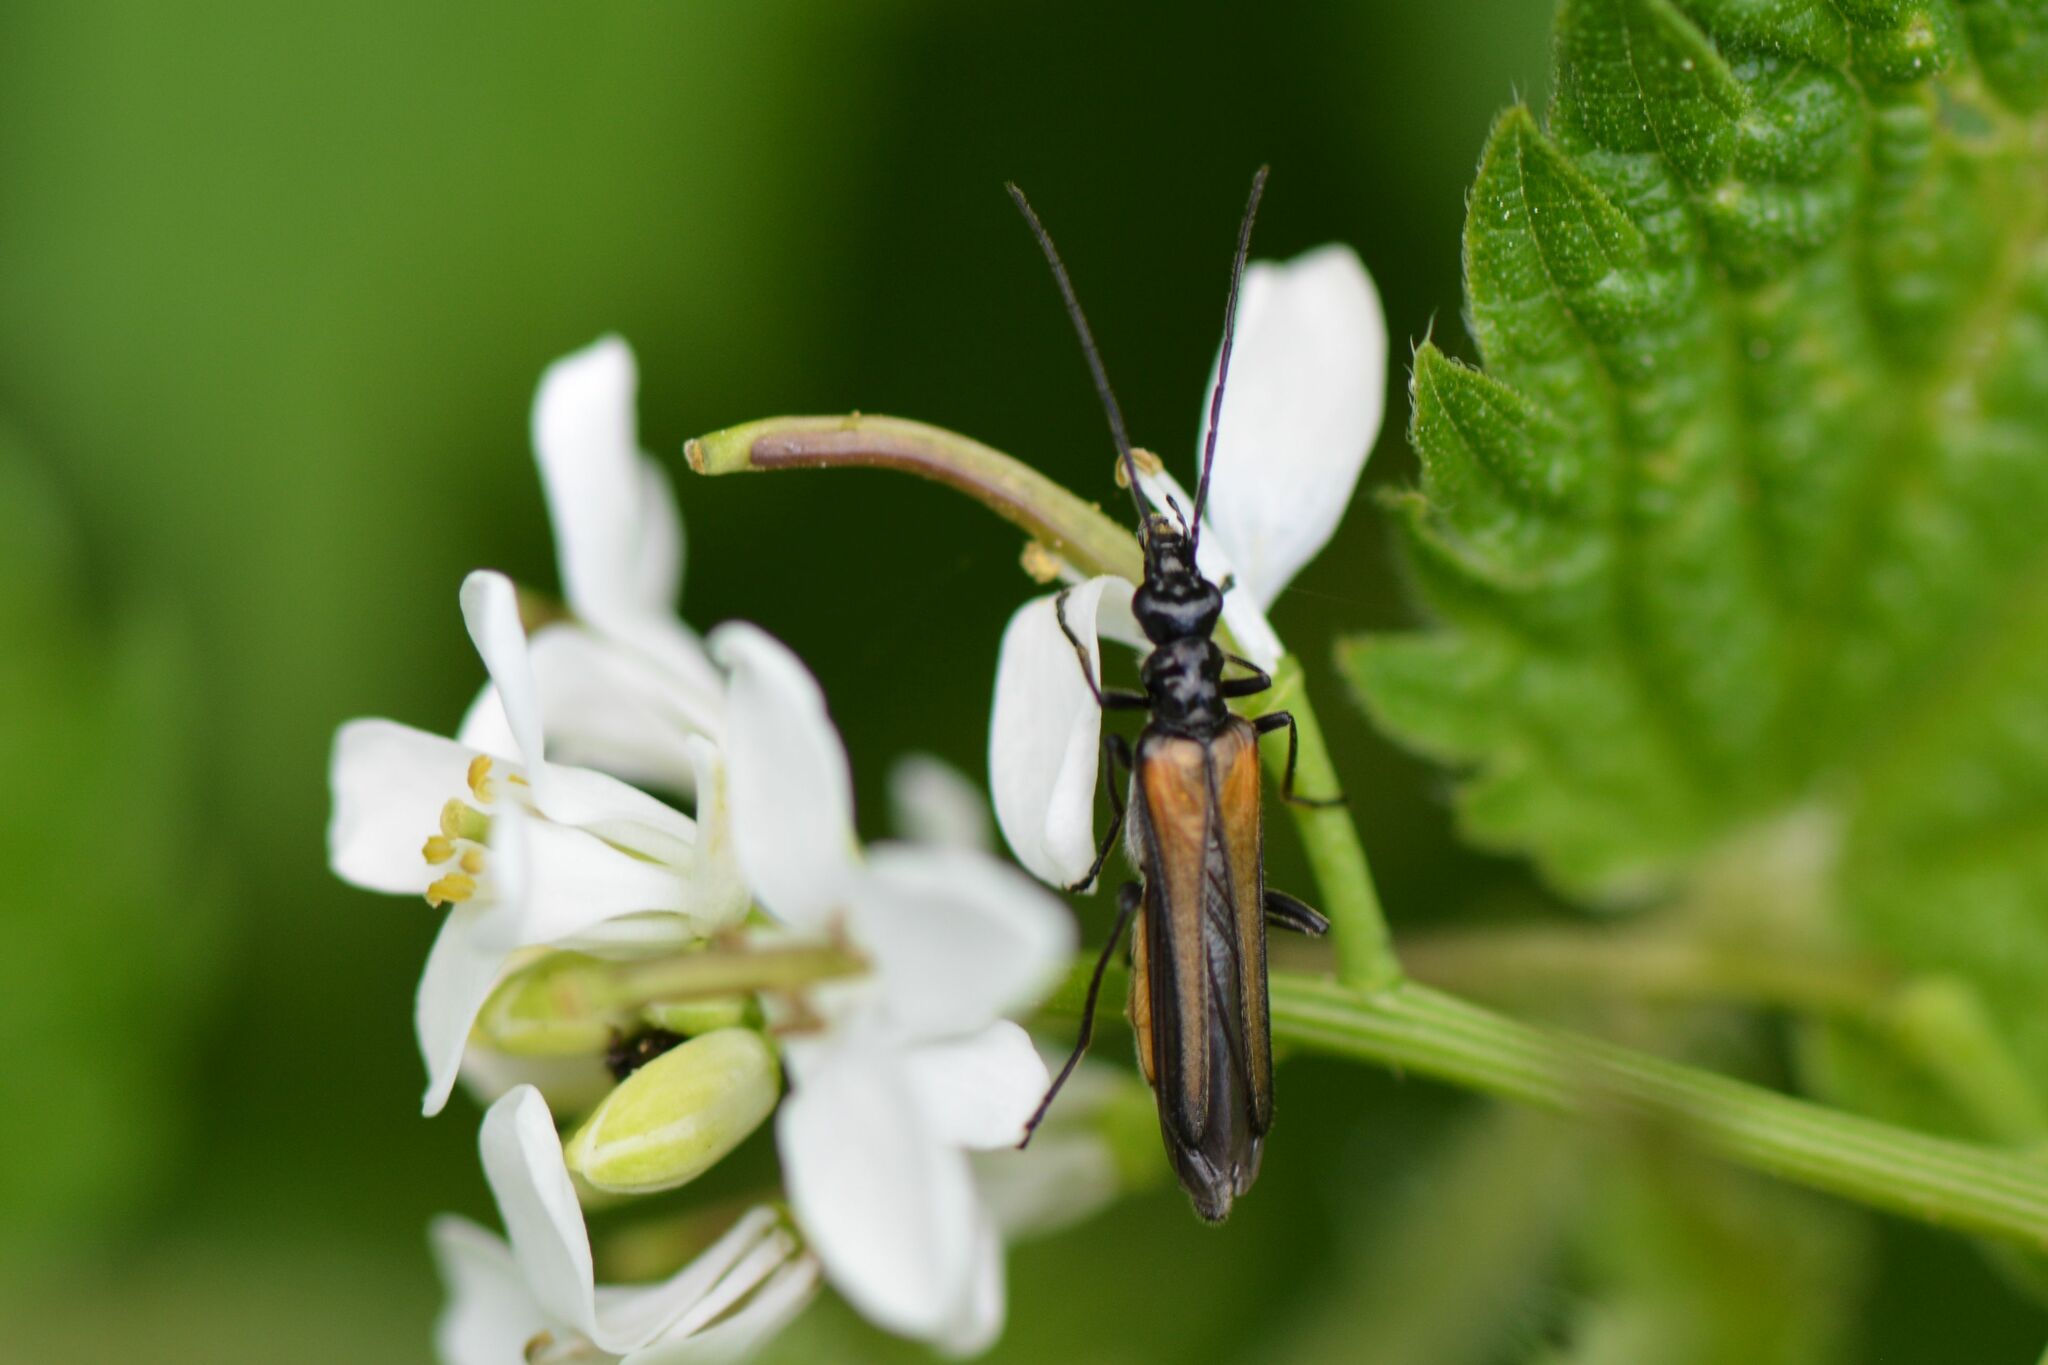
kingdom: Animalia
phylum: Arthropoda
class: Insecta
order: Coleoptera
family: Oedemeridae
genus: Oedemera
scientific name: Oedemera pthysica
